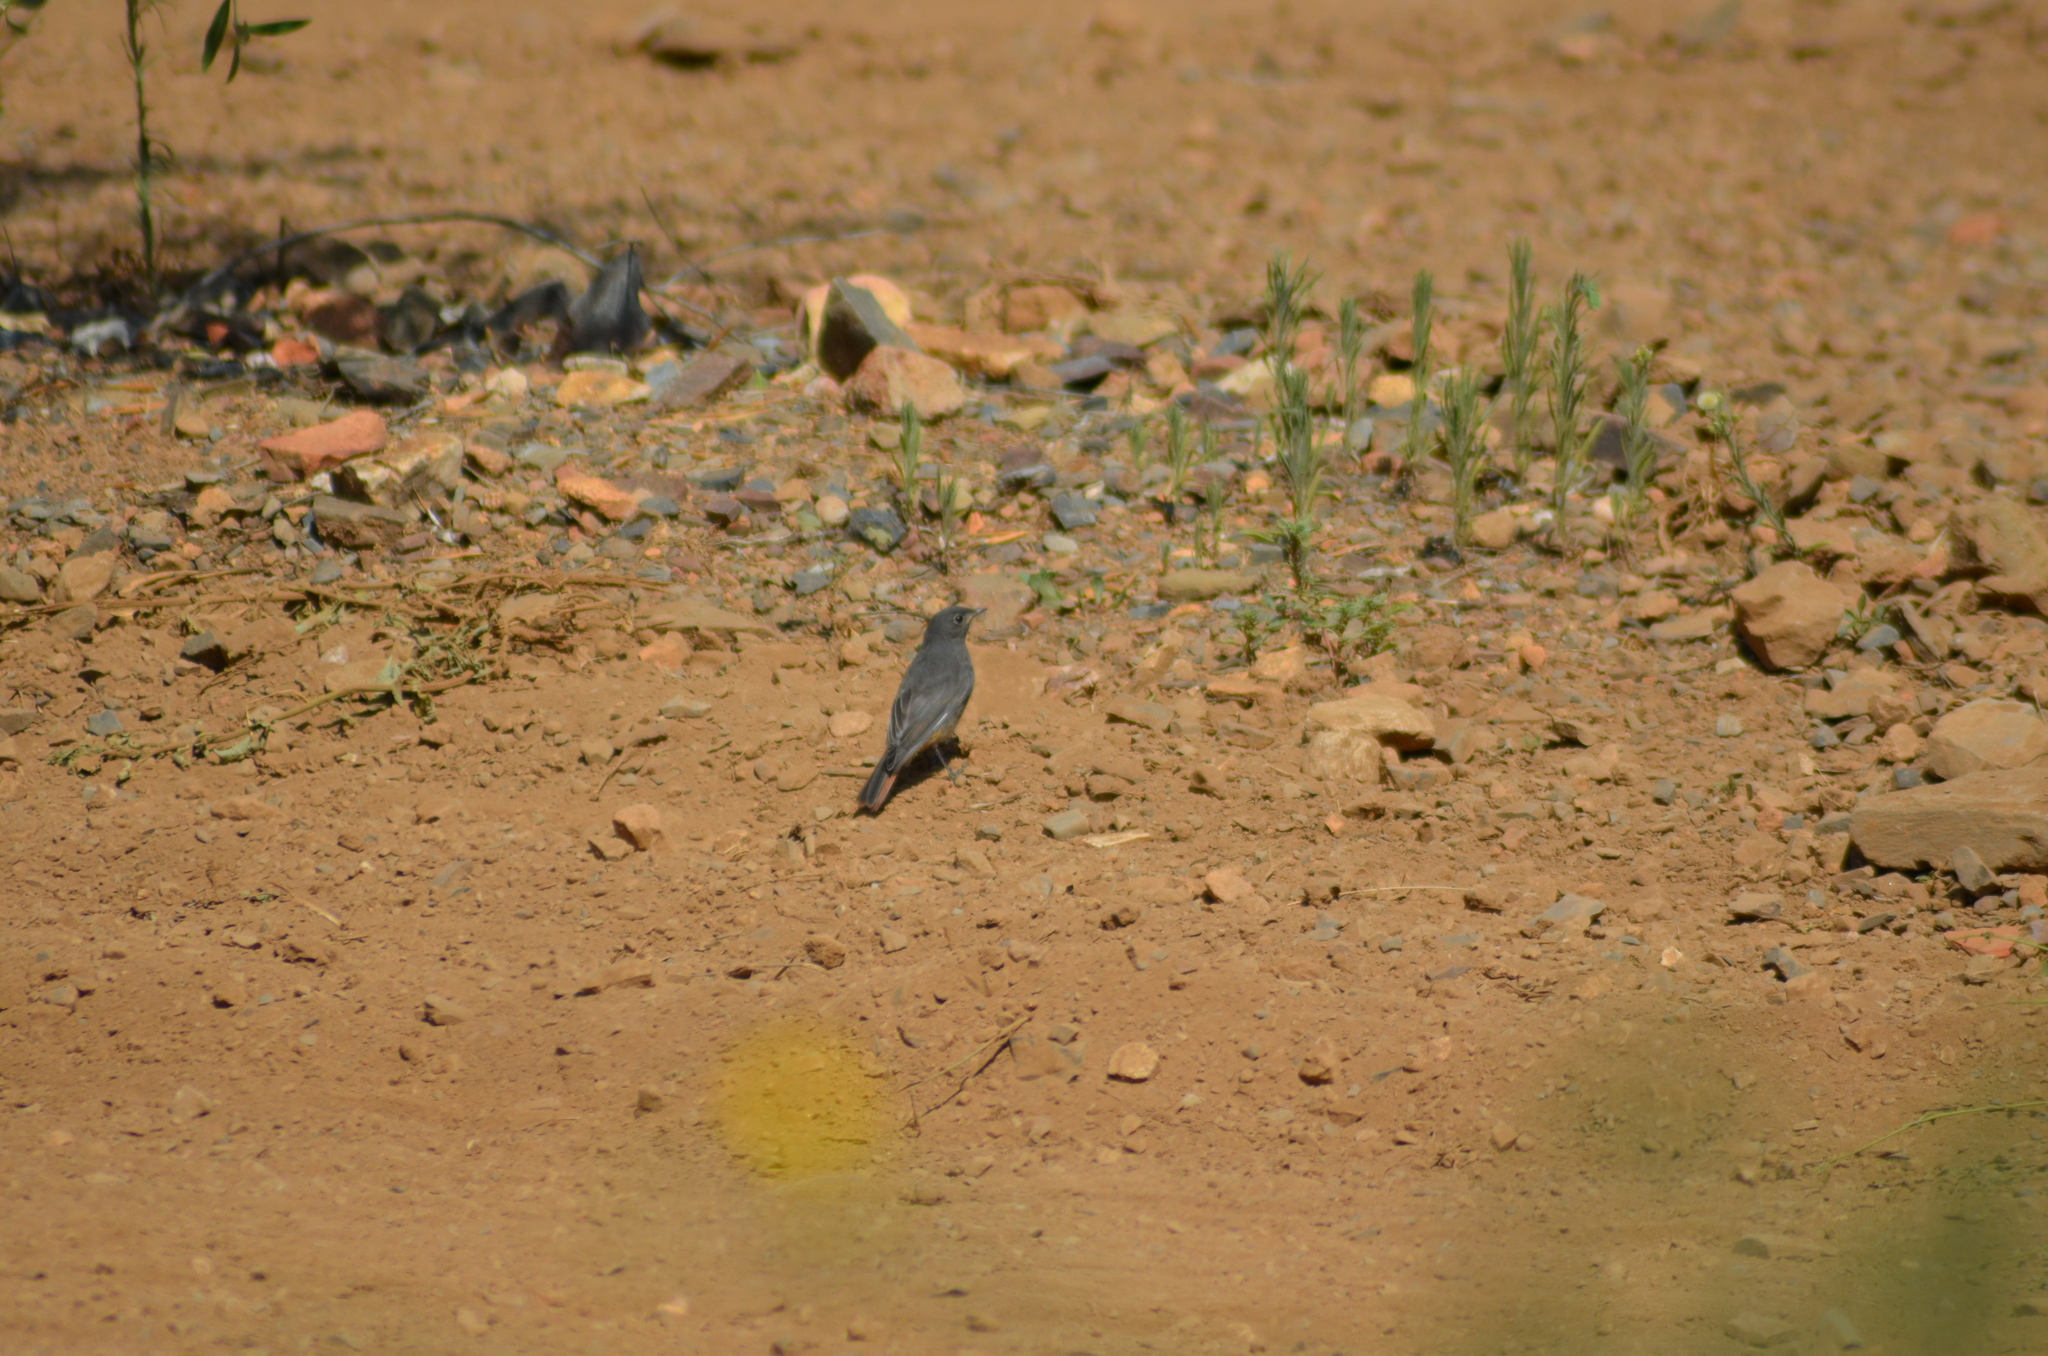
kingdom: Animalia
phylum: Chordata
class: Aves
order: Passeriformes
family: Muscicapidae
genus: Phoenicurus
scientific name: Phoenicurus ochruros
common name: Black redstart
